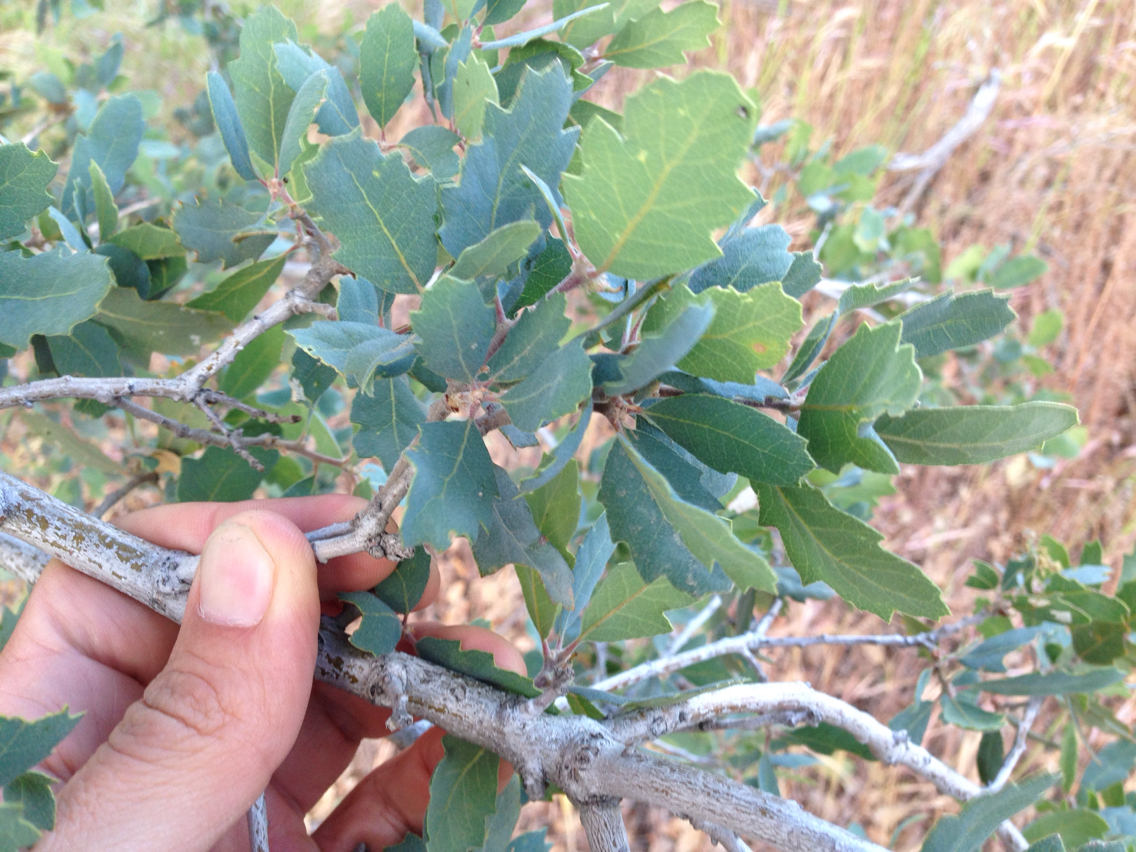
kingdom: Plantae
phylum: Tracheophyta
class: Magnoliopsida
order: Fagales
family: Fagaceae
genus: Quercus
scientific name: Quercus douglasii
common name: Blue oak
